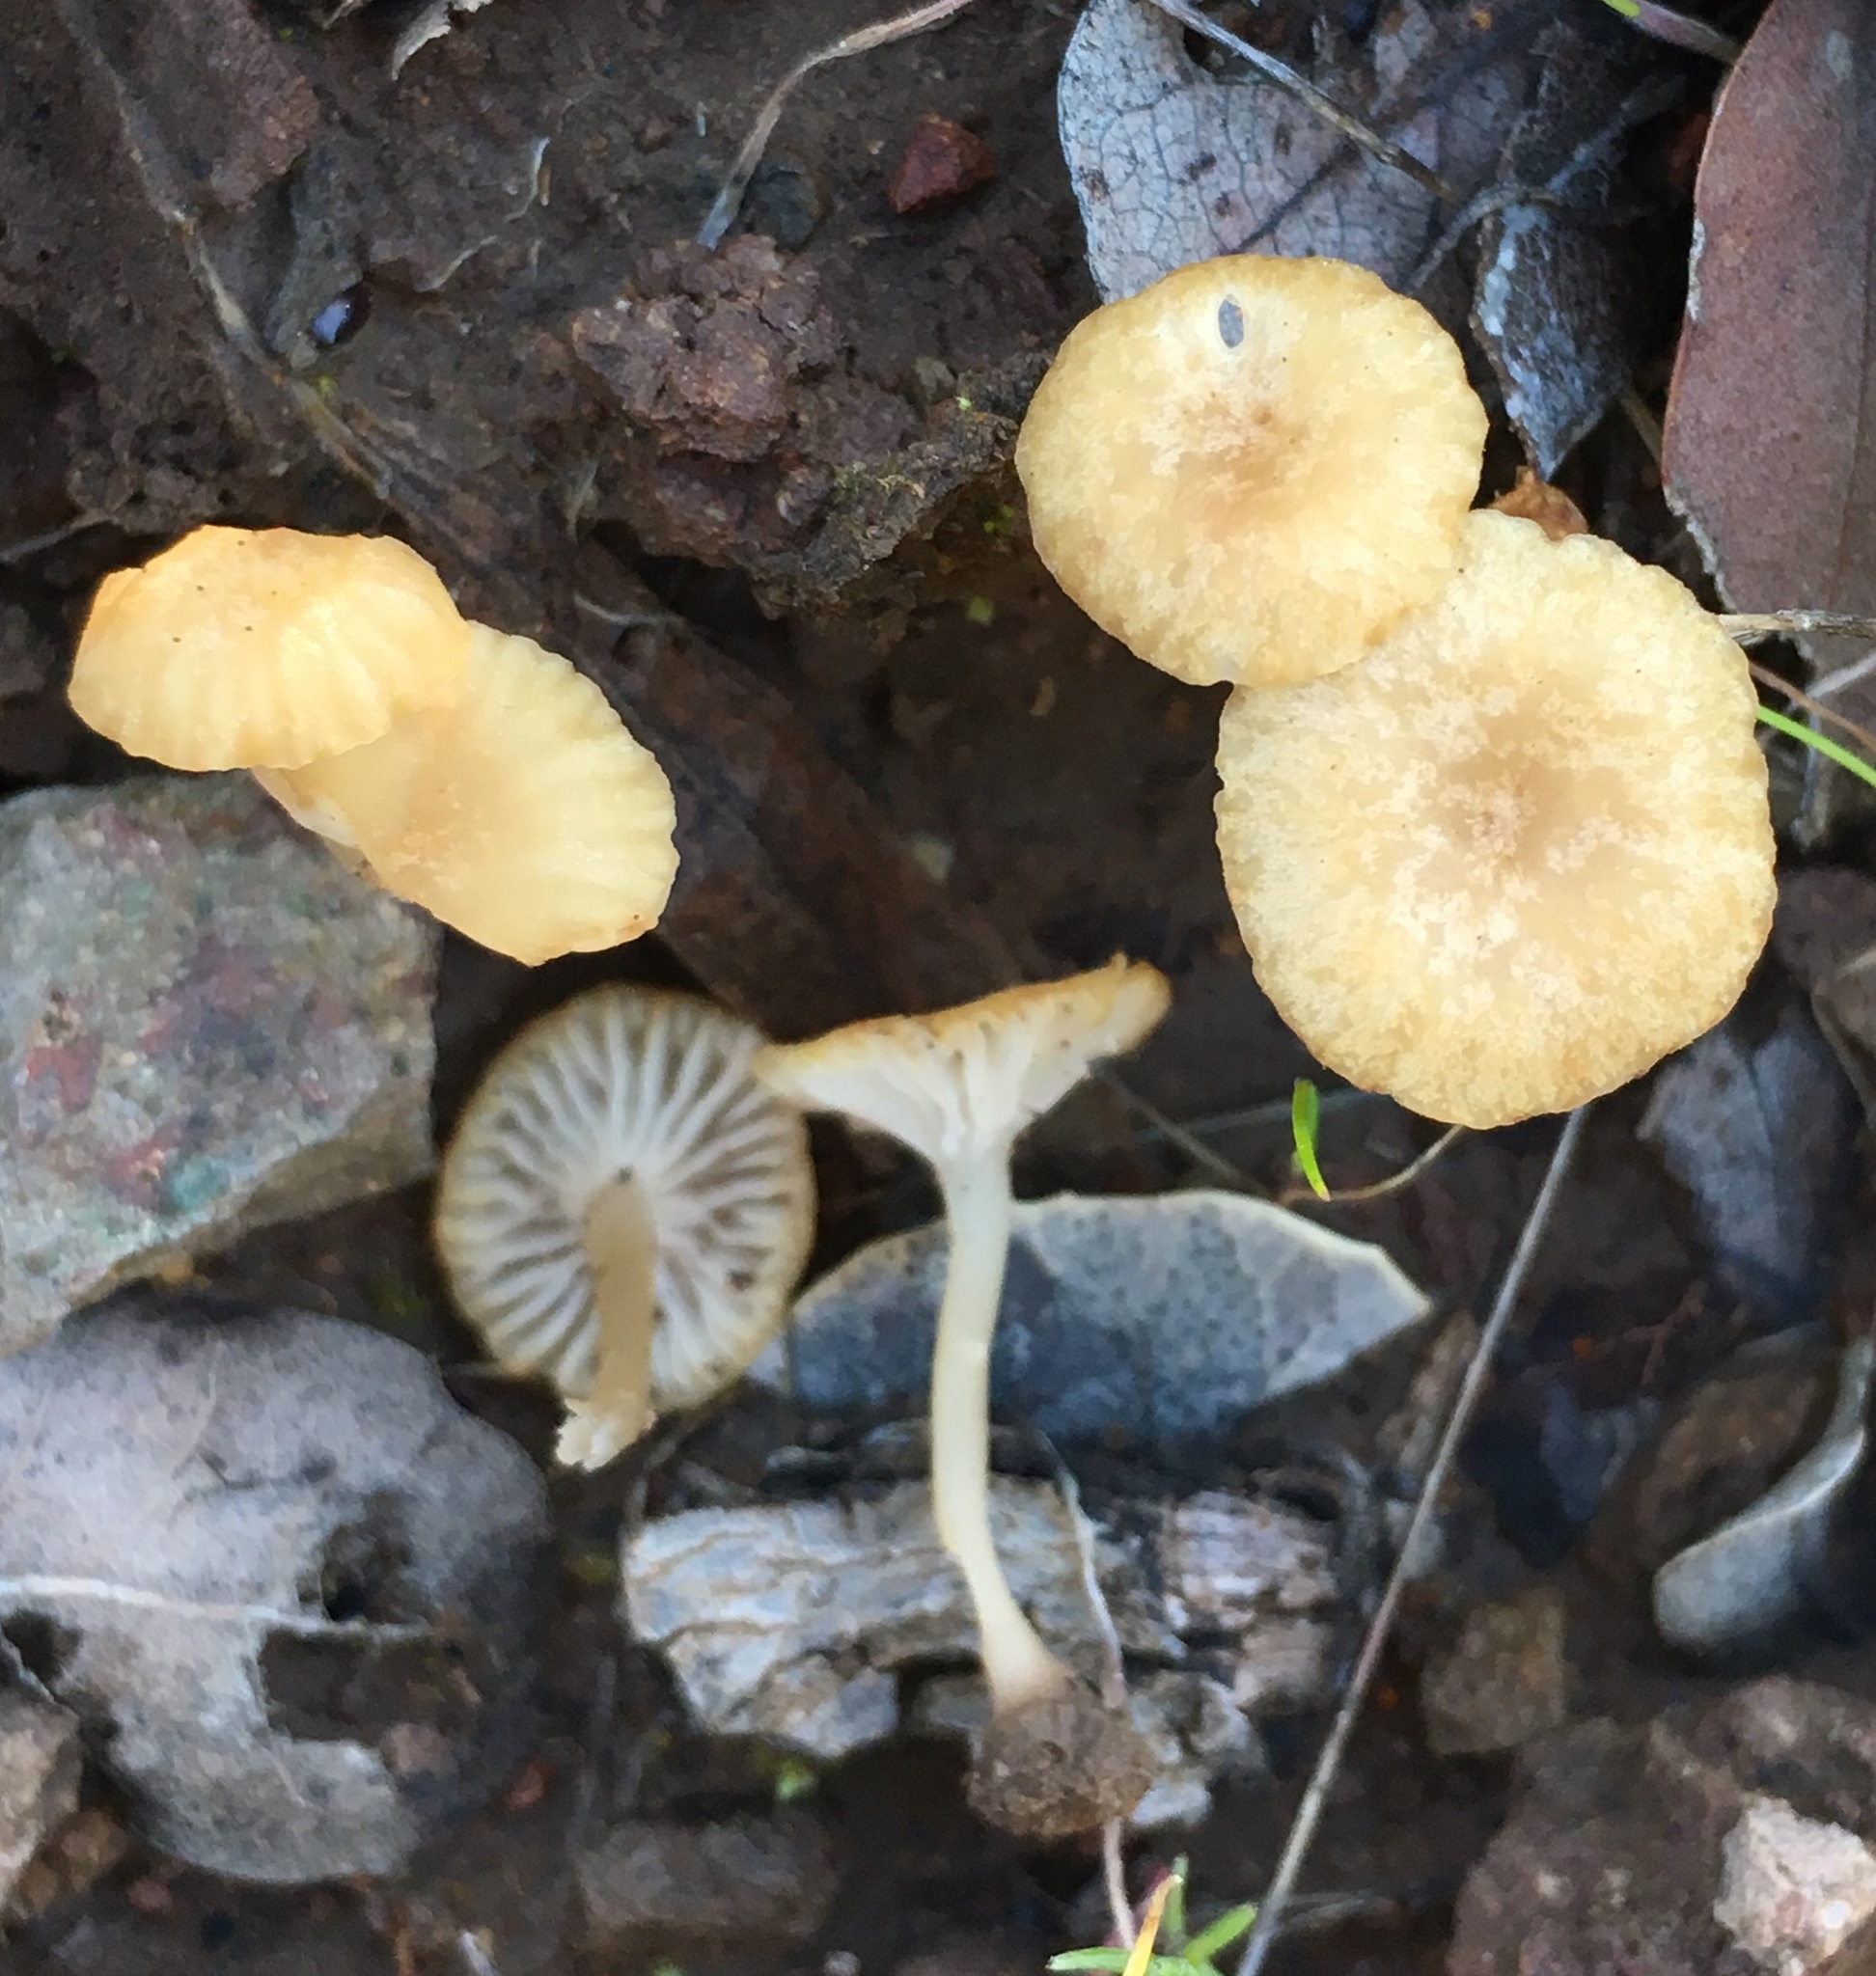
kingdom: Fungi
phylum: Basidiomycota
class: Agaricomycetes
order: Hymenochaetales
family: Rickenellaceae
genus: Contumyces
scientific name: Contumyces rosellus
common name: Rosy navel
